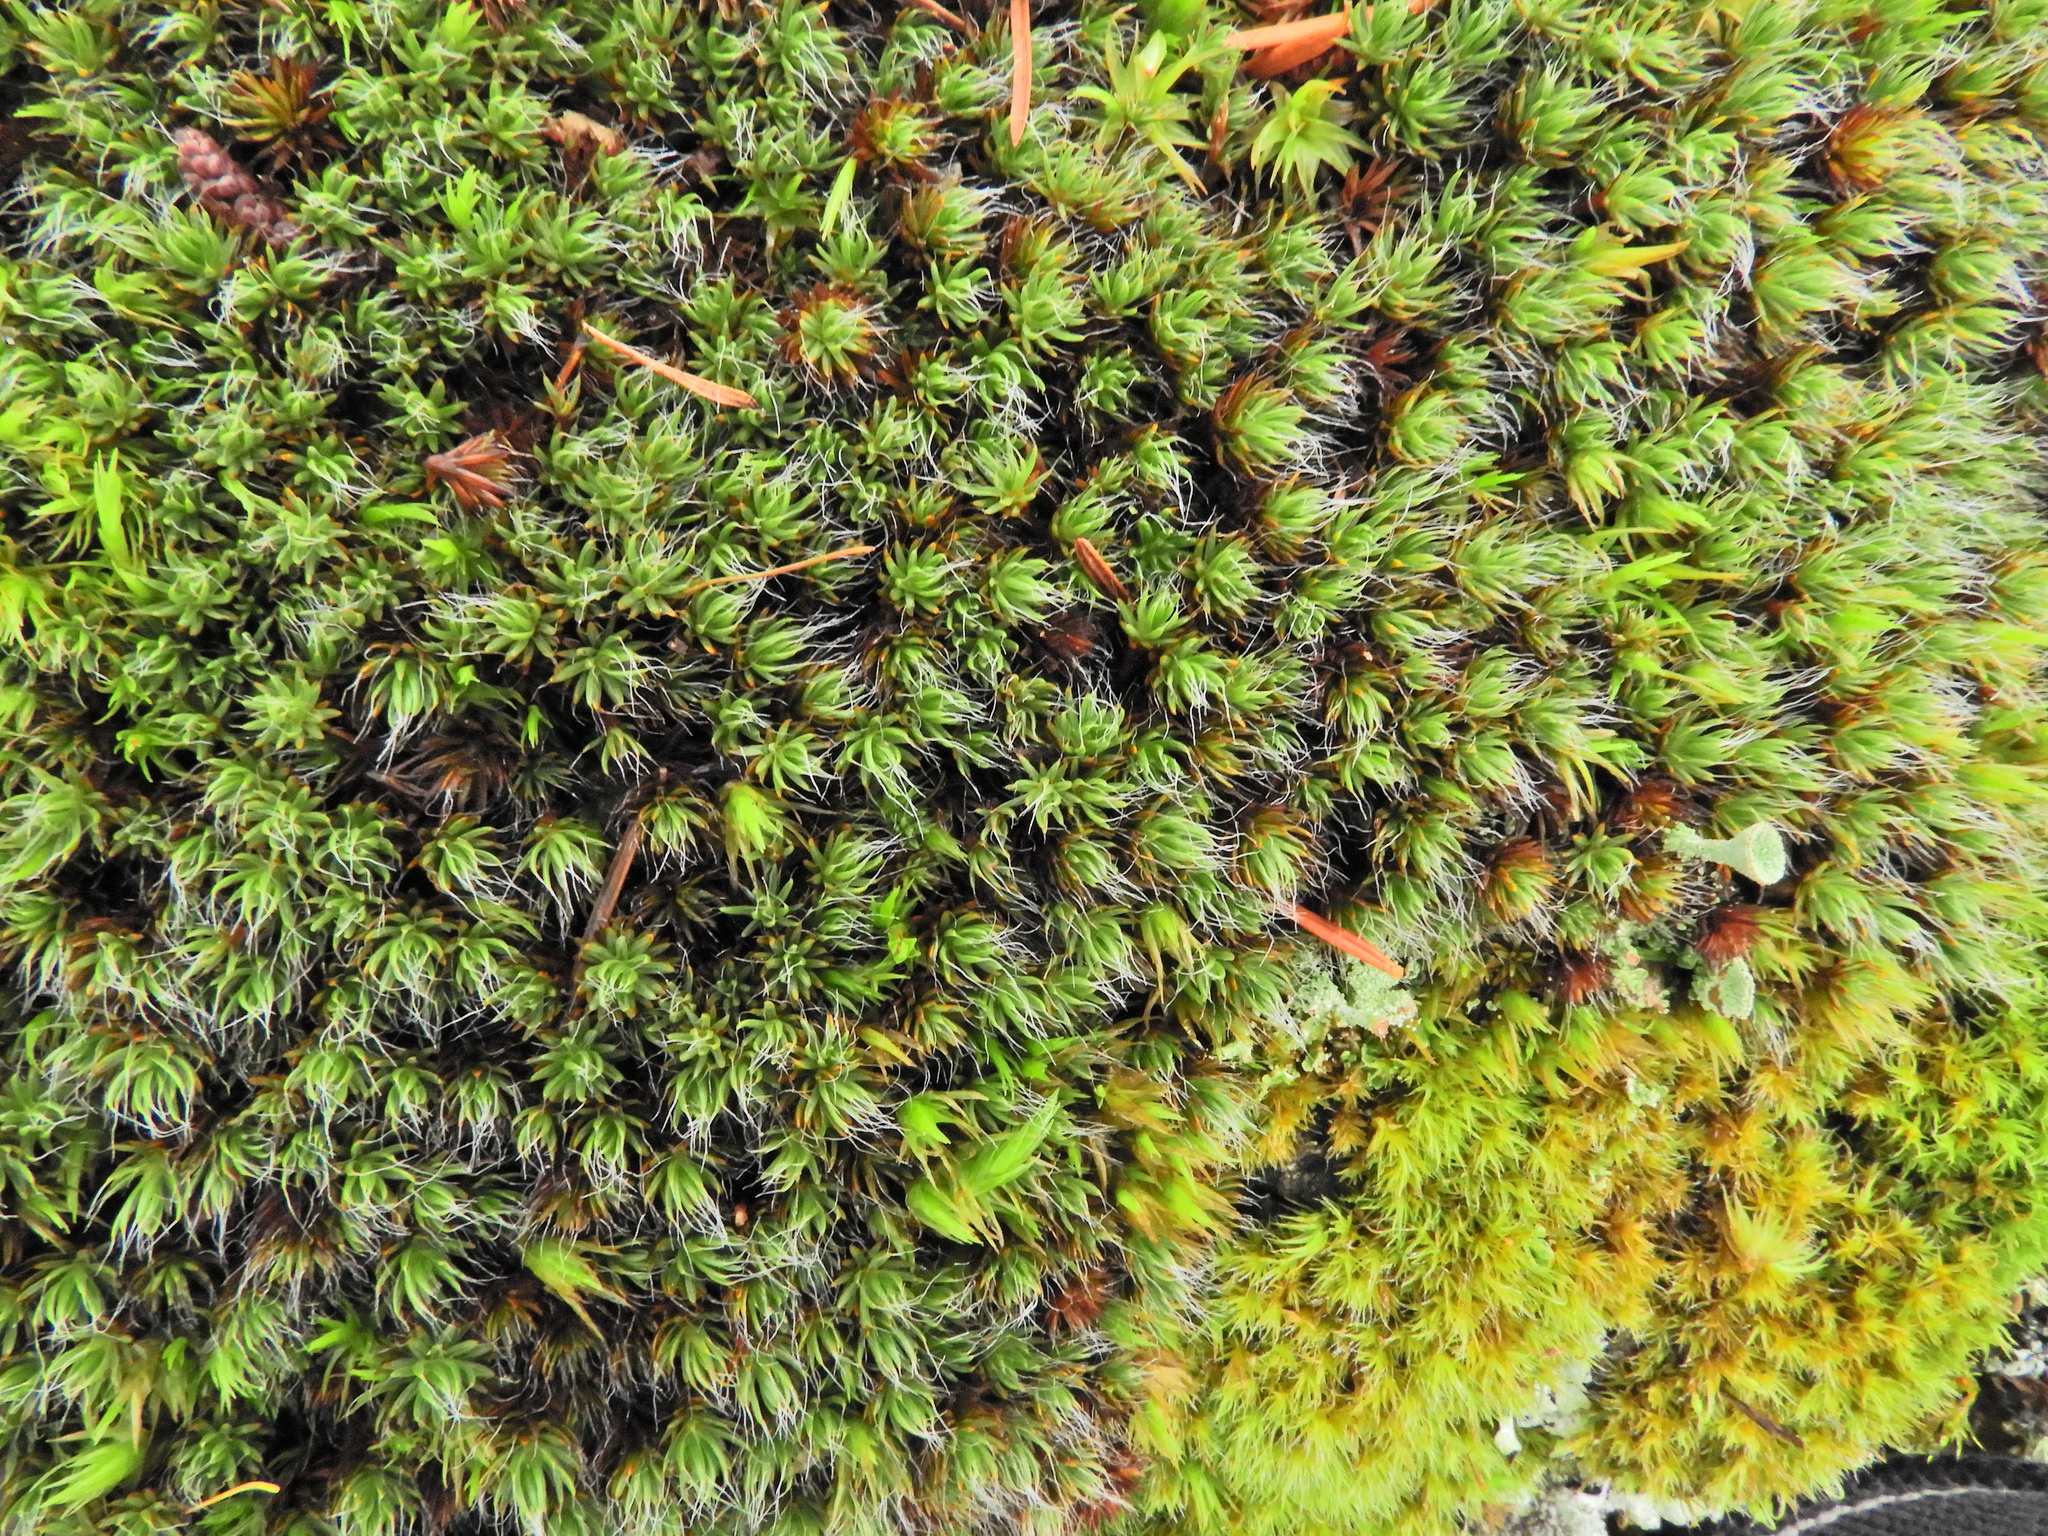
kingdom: Plantae
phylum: Bryophyta
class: Polytrichopsida
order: Polytrichales
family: Polytrichaceae
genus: Polytrichum
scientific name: Polytrichum piliferum
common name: Bristly haircap
